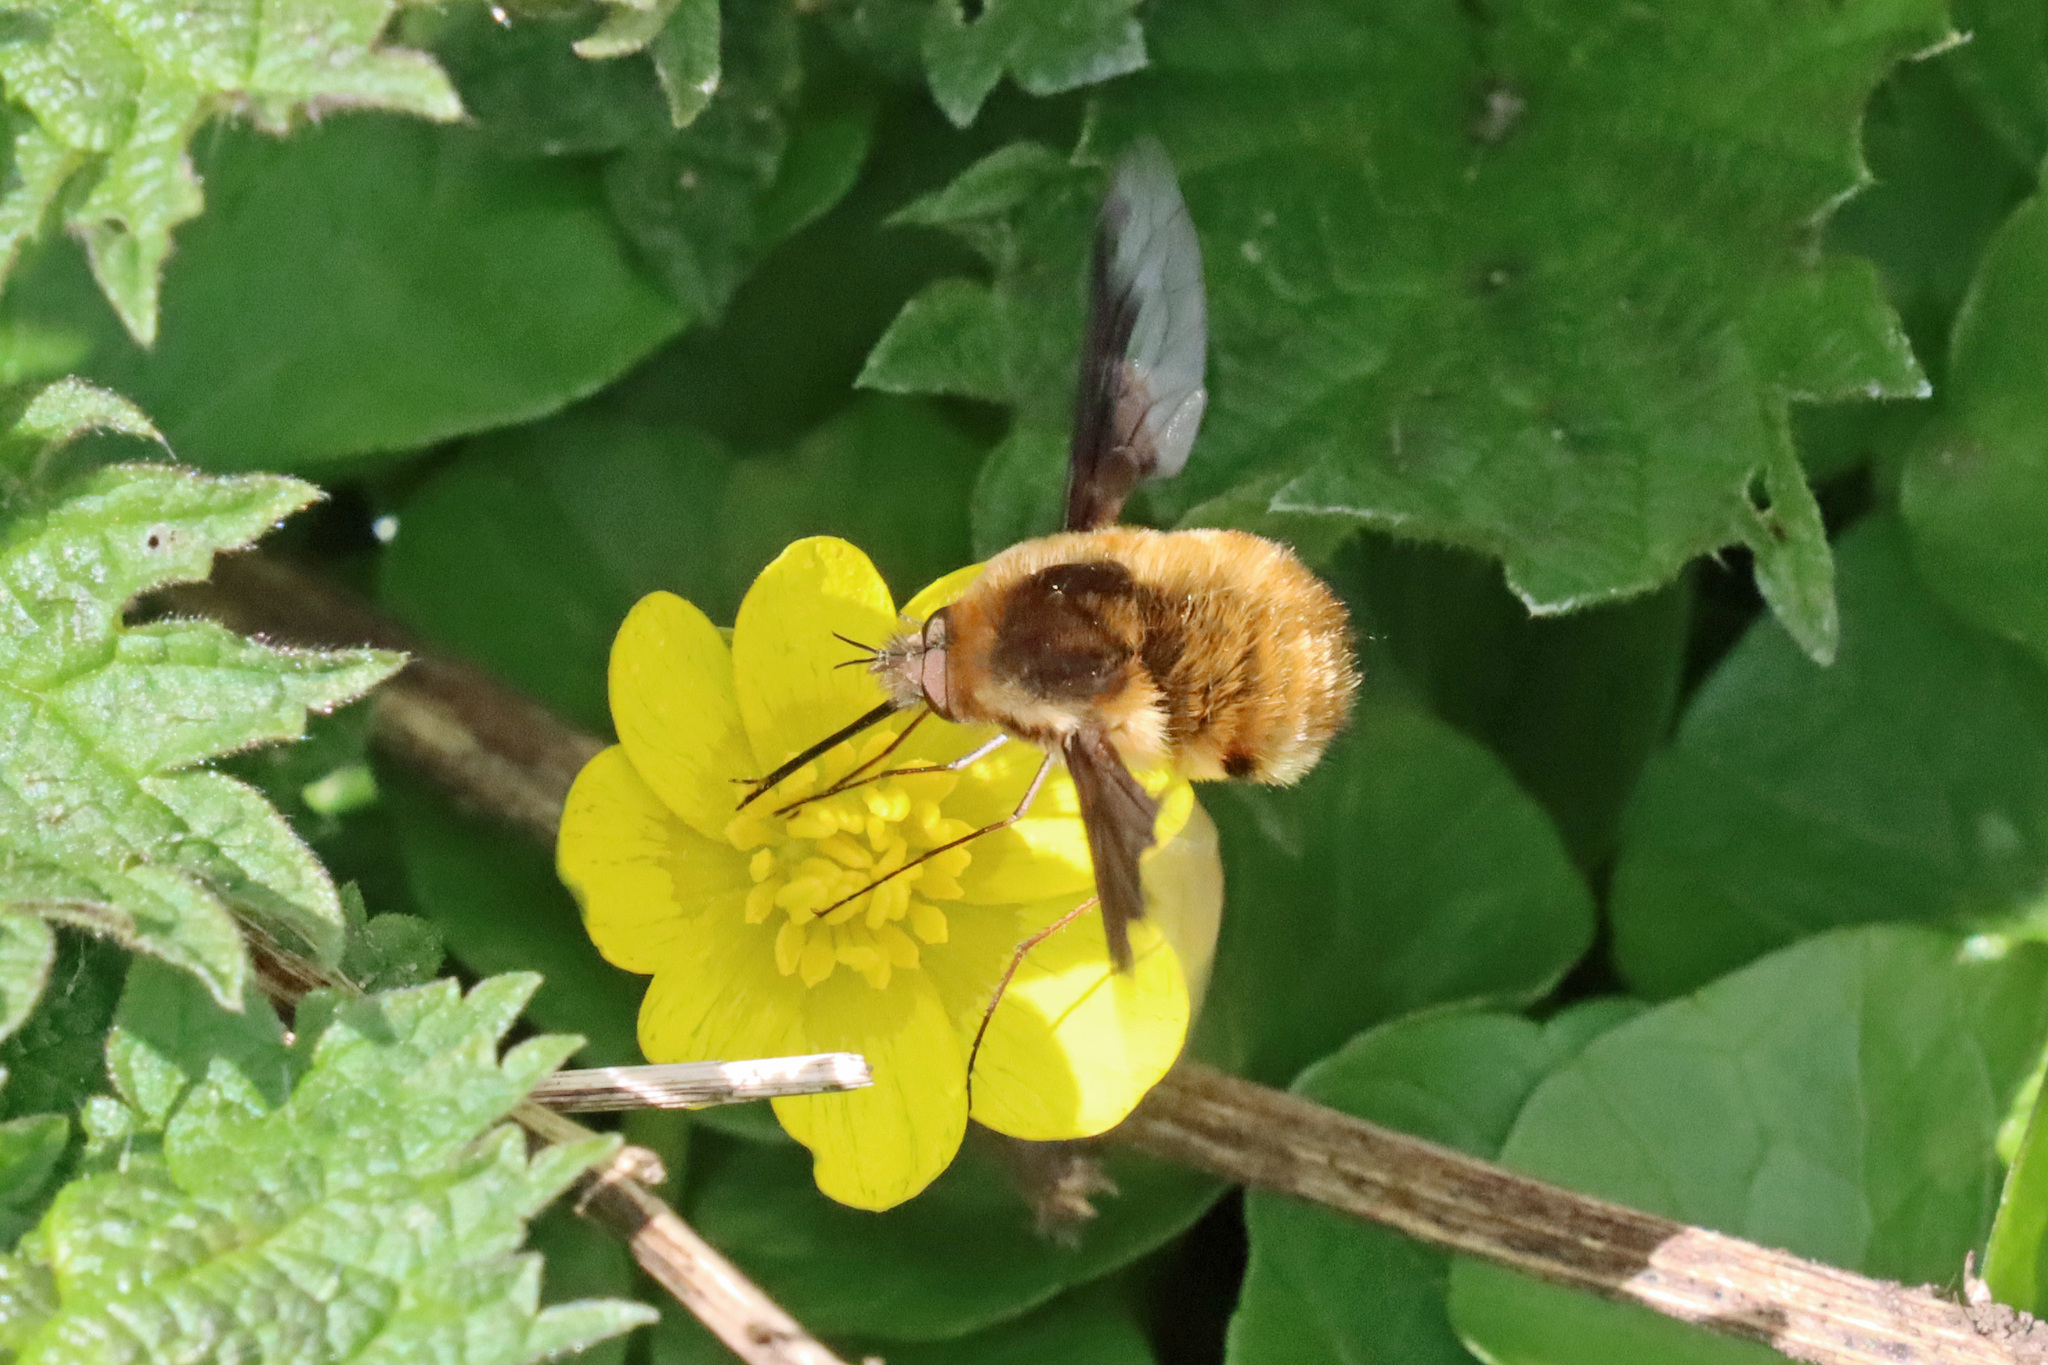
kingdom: Animalia
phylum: Arthropoda
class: Insecta
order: Diptera
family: Bombyliidae
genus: Bombylius
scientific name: Bombylius major
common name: Bee fly
